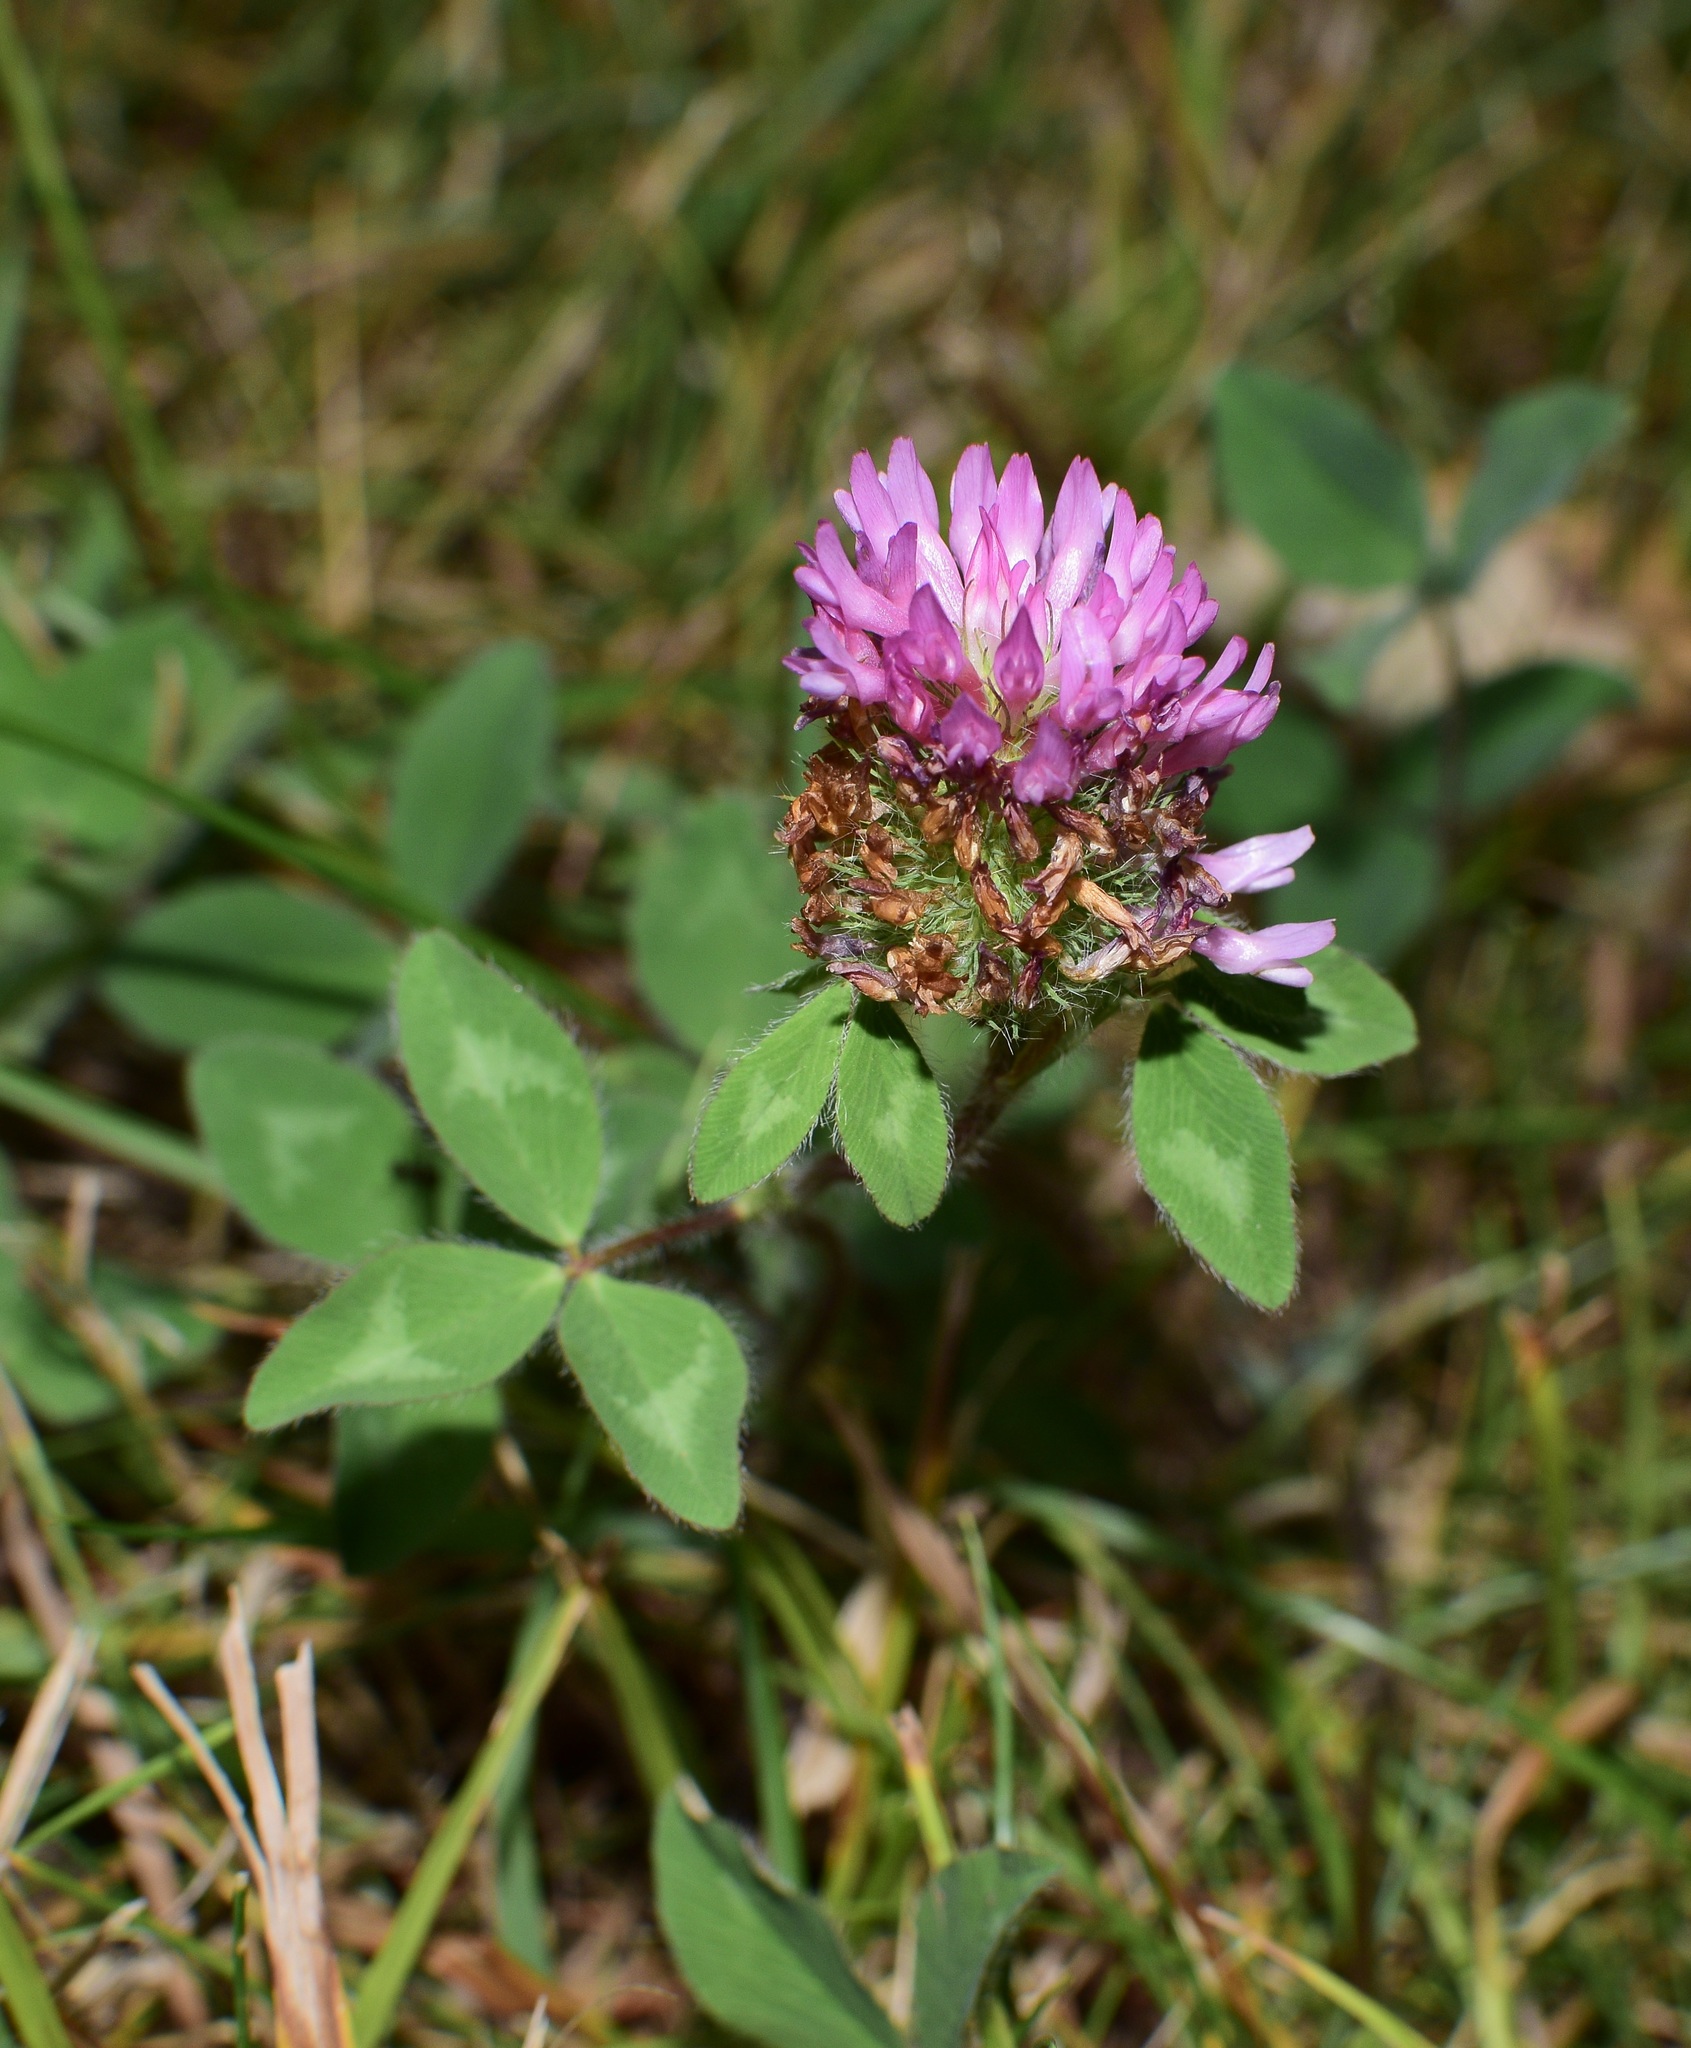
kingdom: Plantae
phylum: Tracheophyta
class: Magnoliopsida
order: Fabales
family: Fabaceae
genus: Trifolium
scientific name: Trifolium pratense
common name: Red clover
